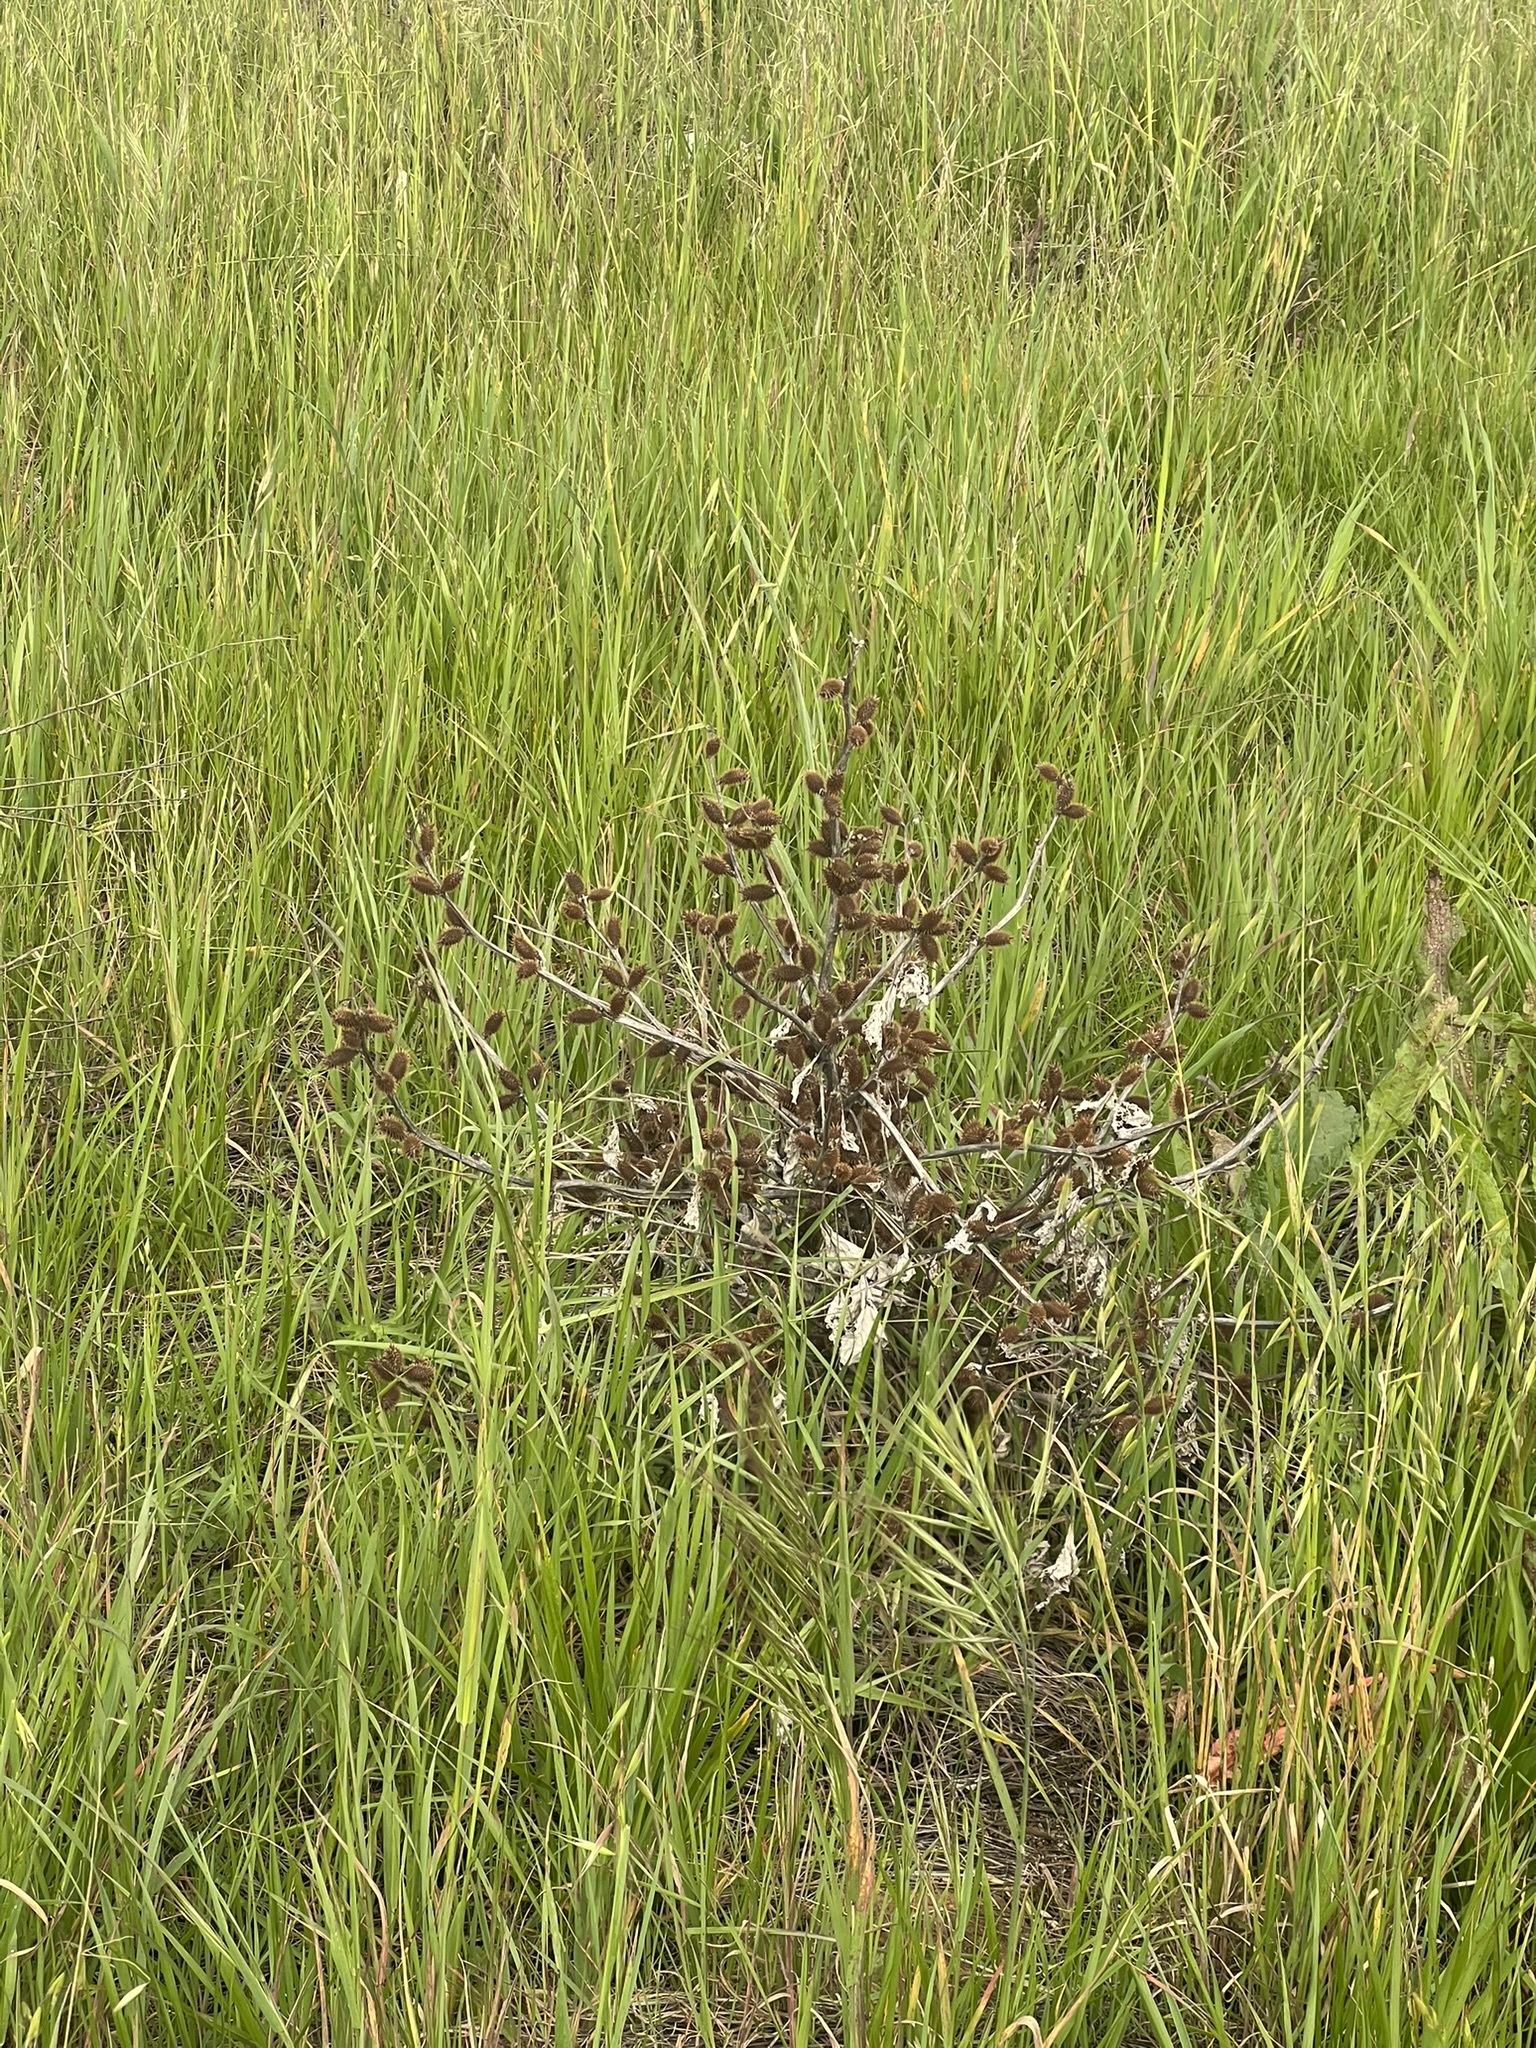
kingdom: Plantae
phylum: Tracheophyta
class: Magnoliopsida
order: Asterales
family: Asteraceae
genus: Xanthium
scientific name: Xanthium strumarium
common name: Rough cocklebur
